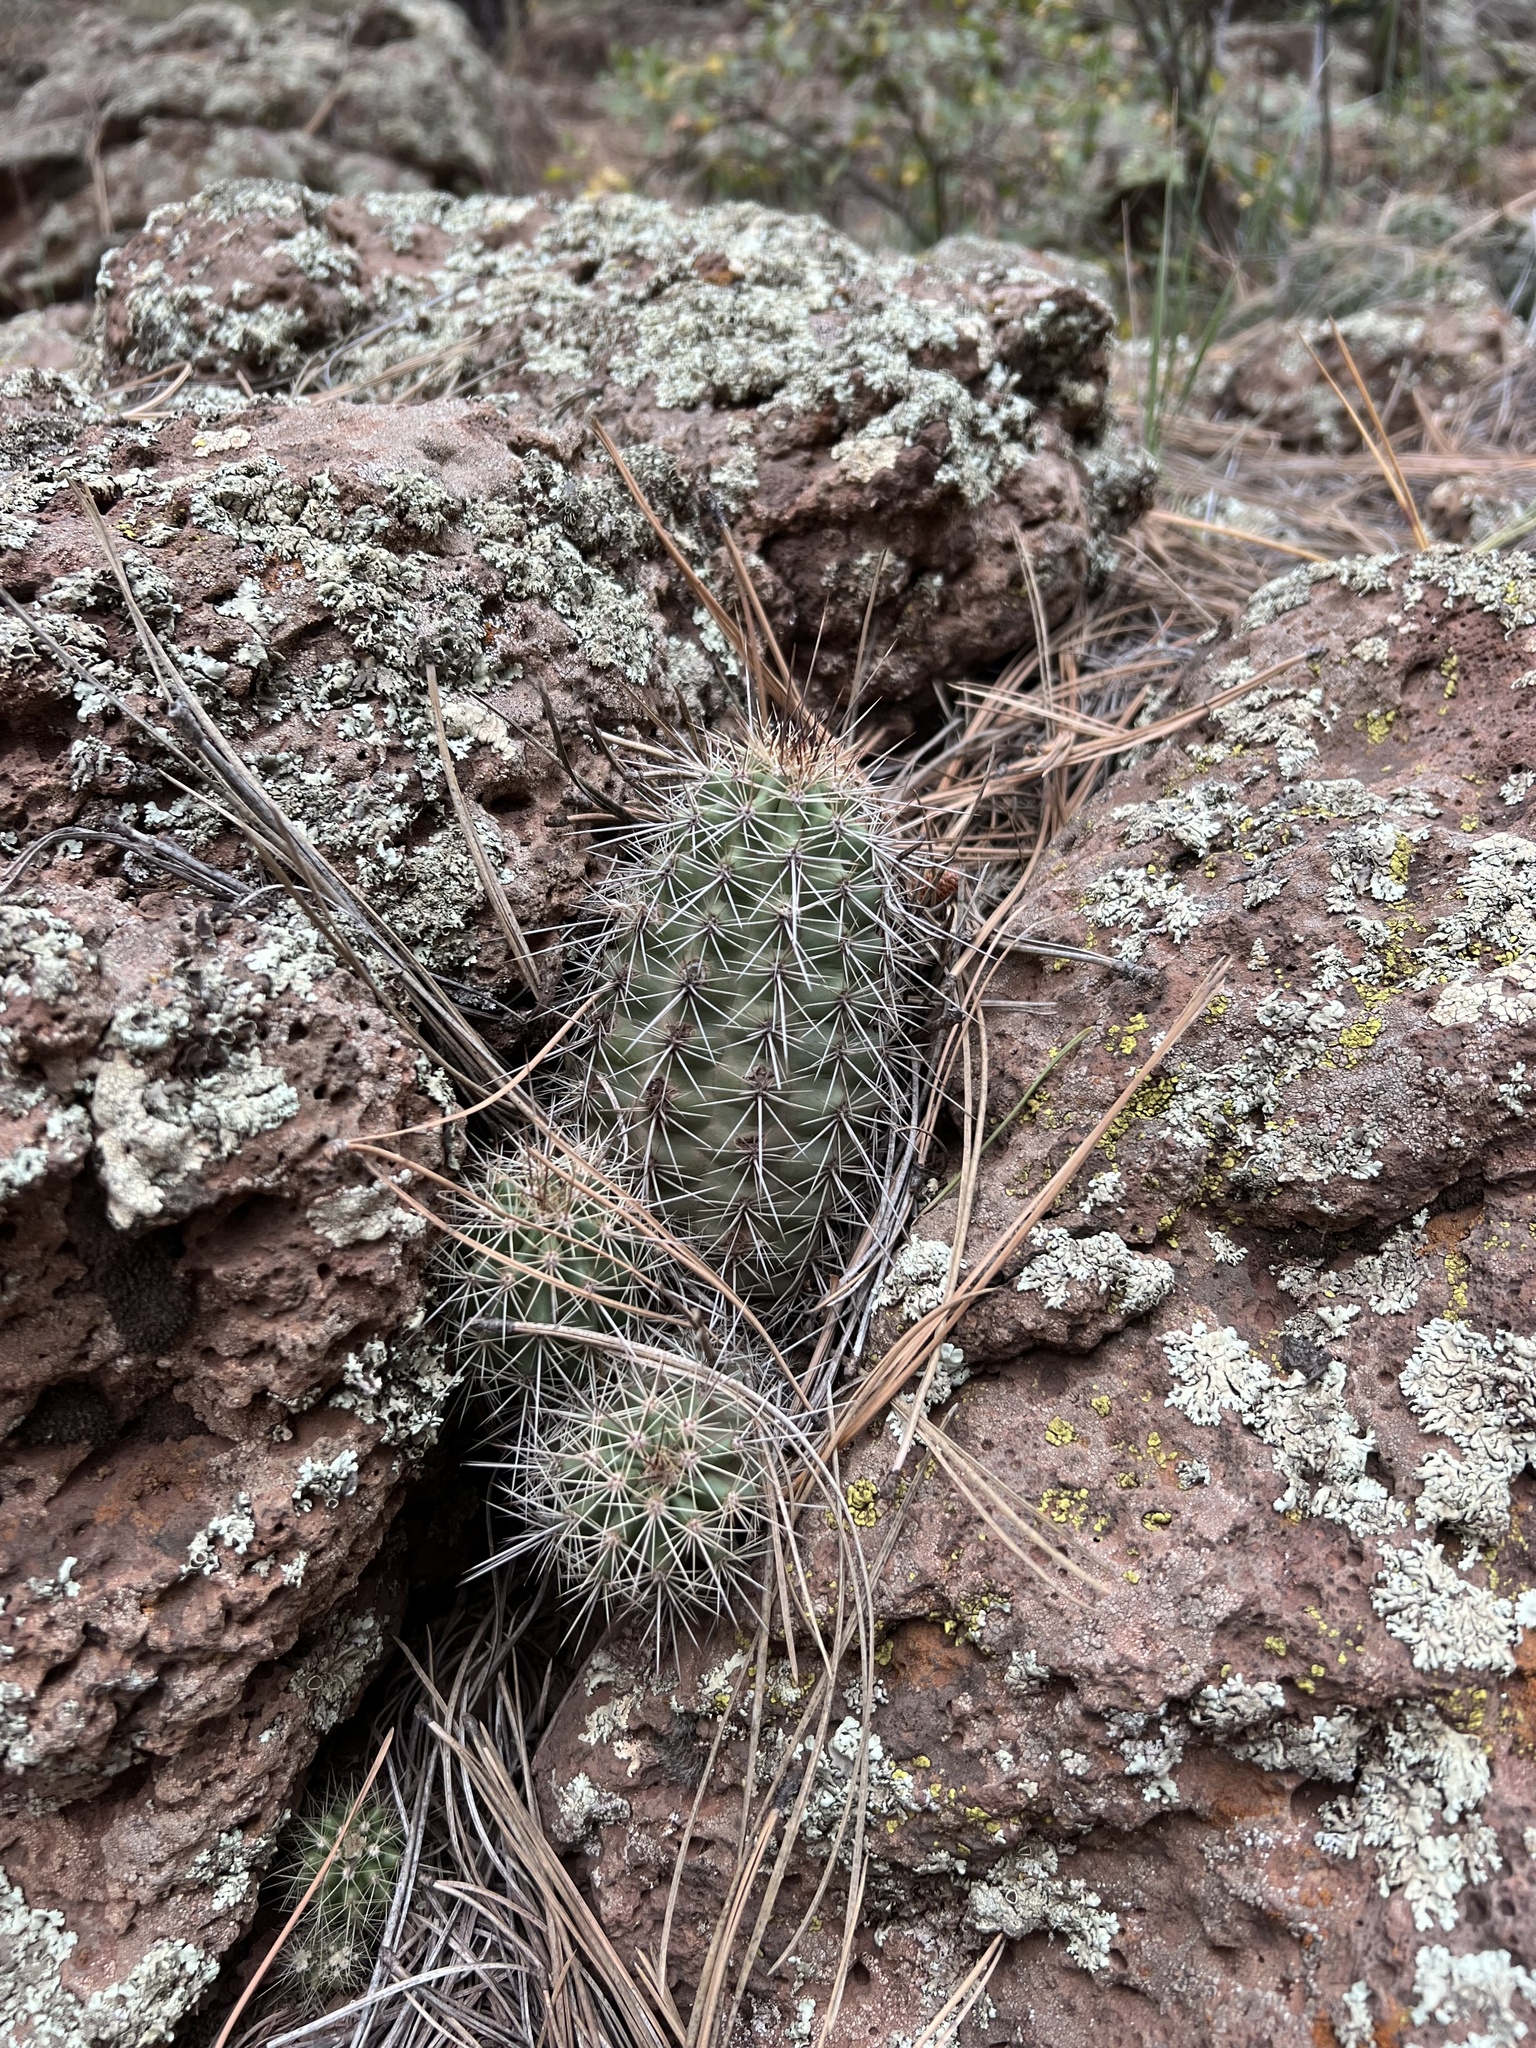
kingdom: Plantae
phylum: Tracheophyta
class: Magnoliopsida
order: Caryophyllales
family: Cactaceae
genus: Echinocereus
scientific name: Echinocereus bakeri
